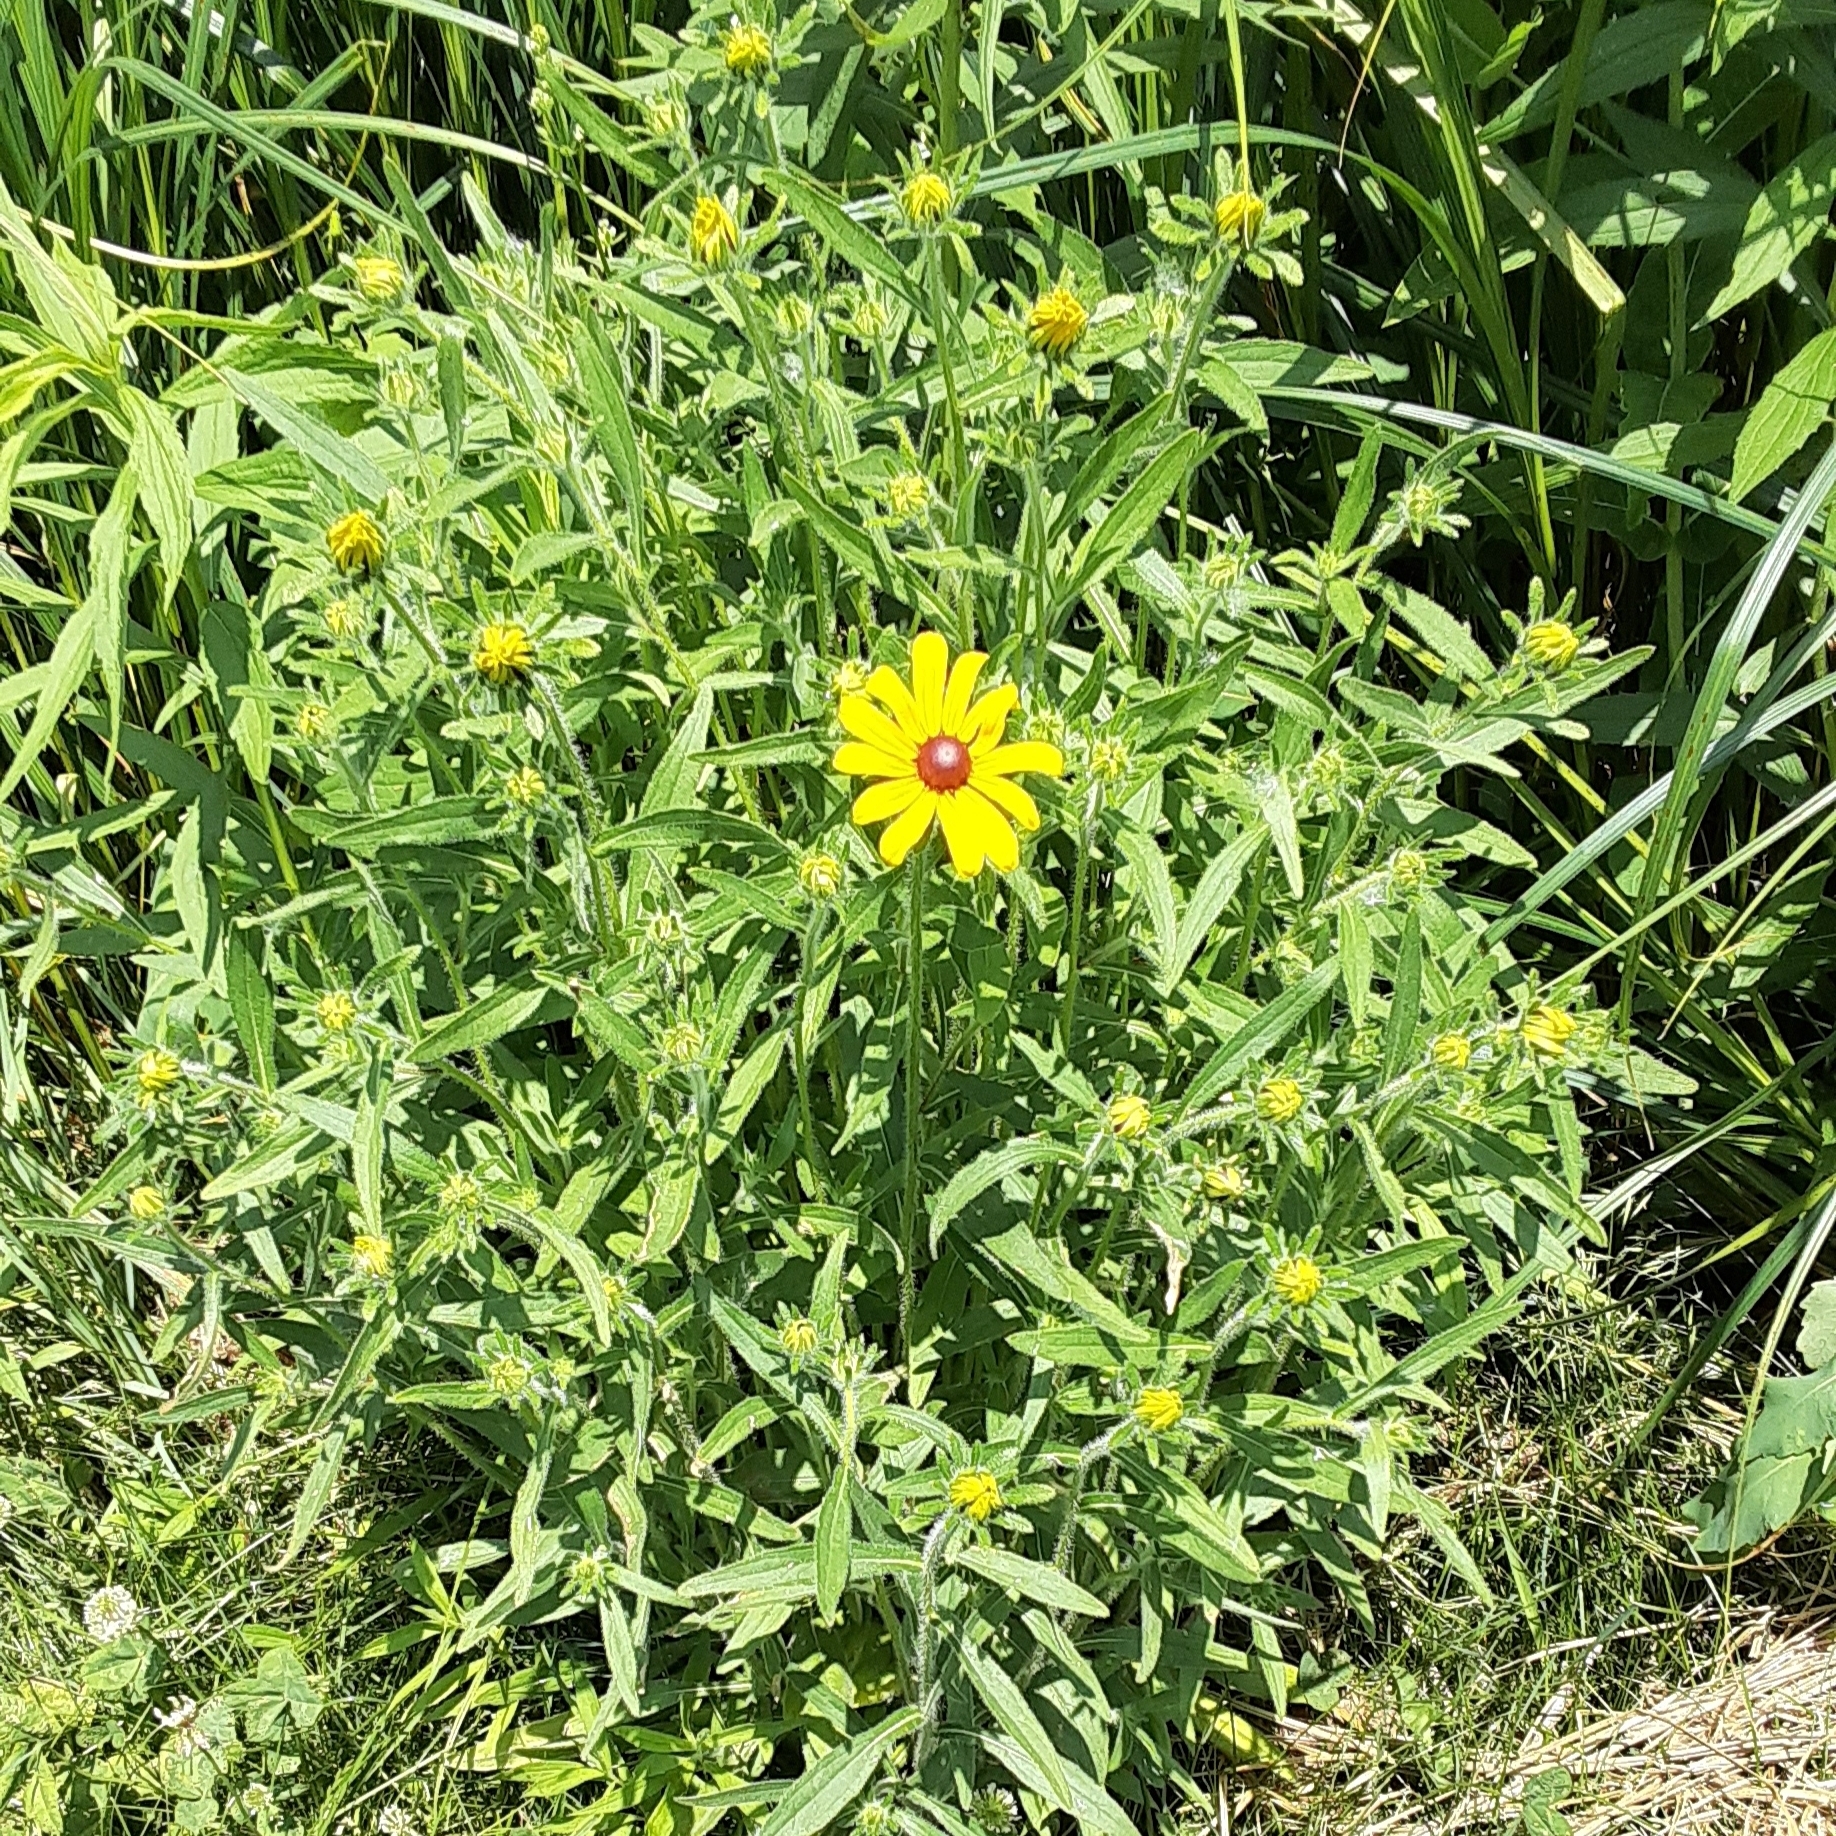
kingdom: Plantae
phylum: Tracheophyta
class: Magnoliopsida
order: Asterales
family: Asteraceae
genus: Rudbeckia
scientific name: Rudbeckia hirta
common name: Black-eyed-susan
